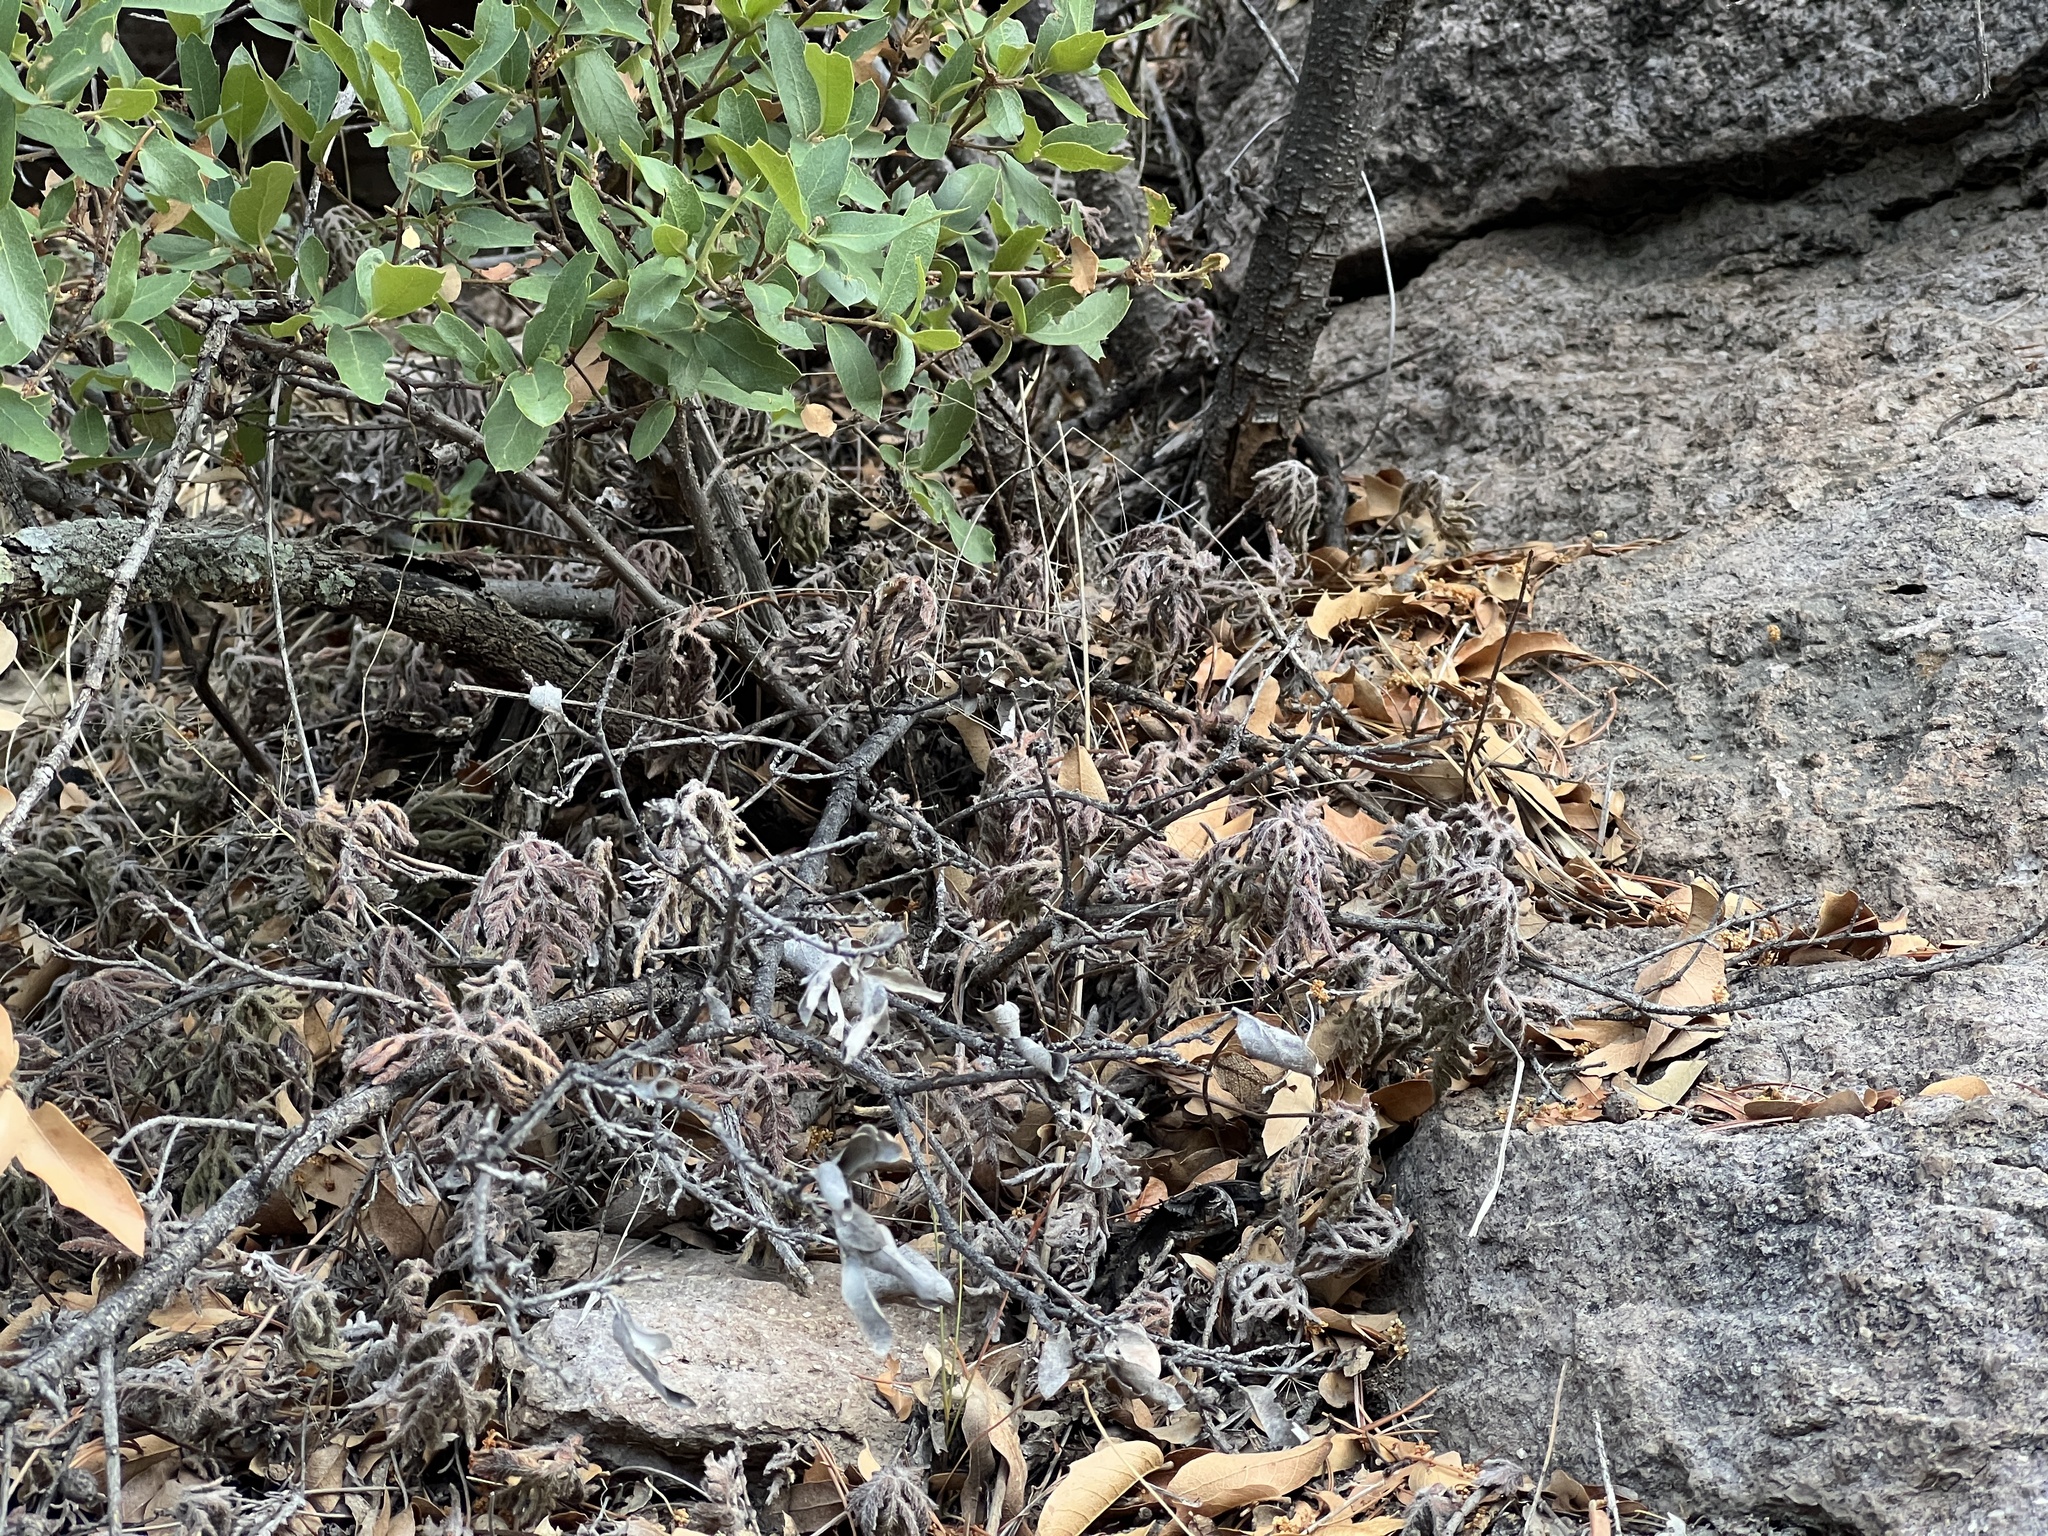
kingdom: Plantae
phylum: Tracheophyta
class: Polypodiopsida
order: Polypodiales
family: Pteridaceae
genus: Bommeria
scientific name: Bommeria hispida
